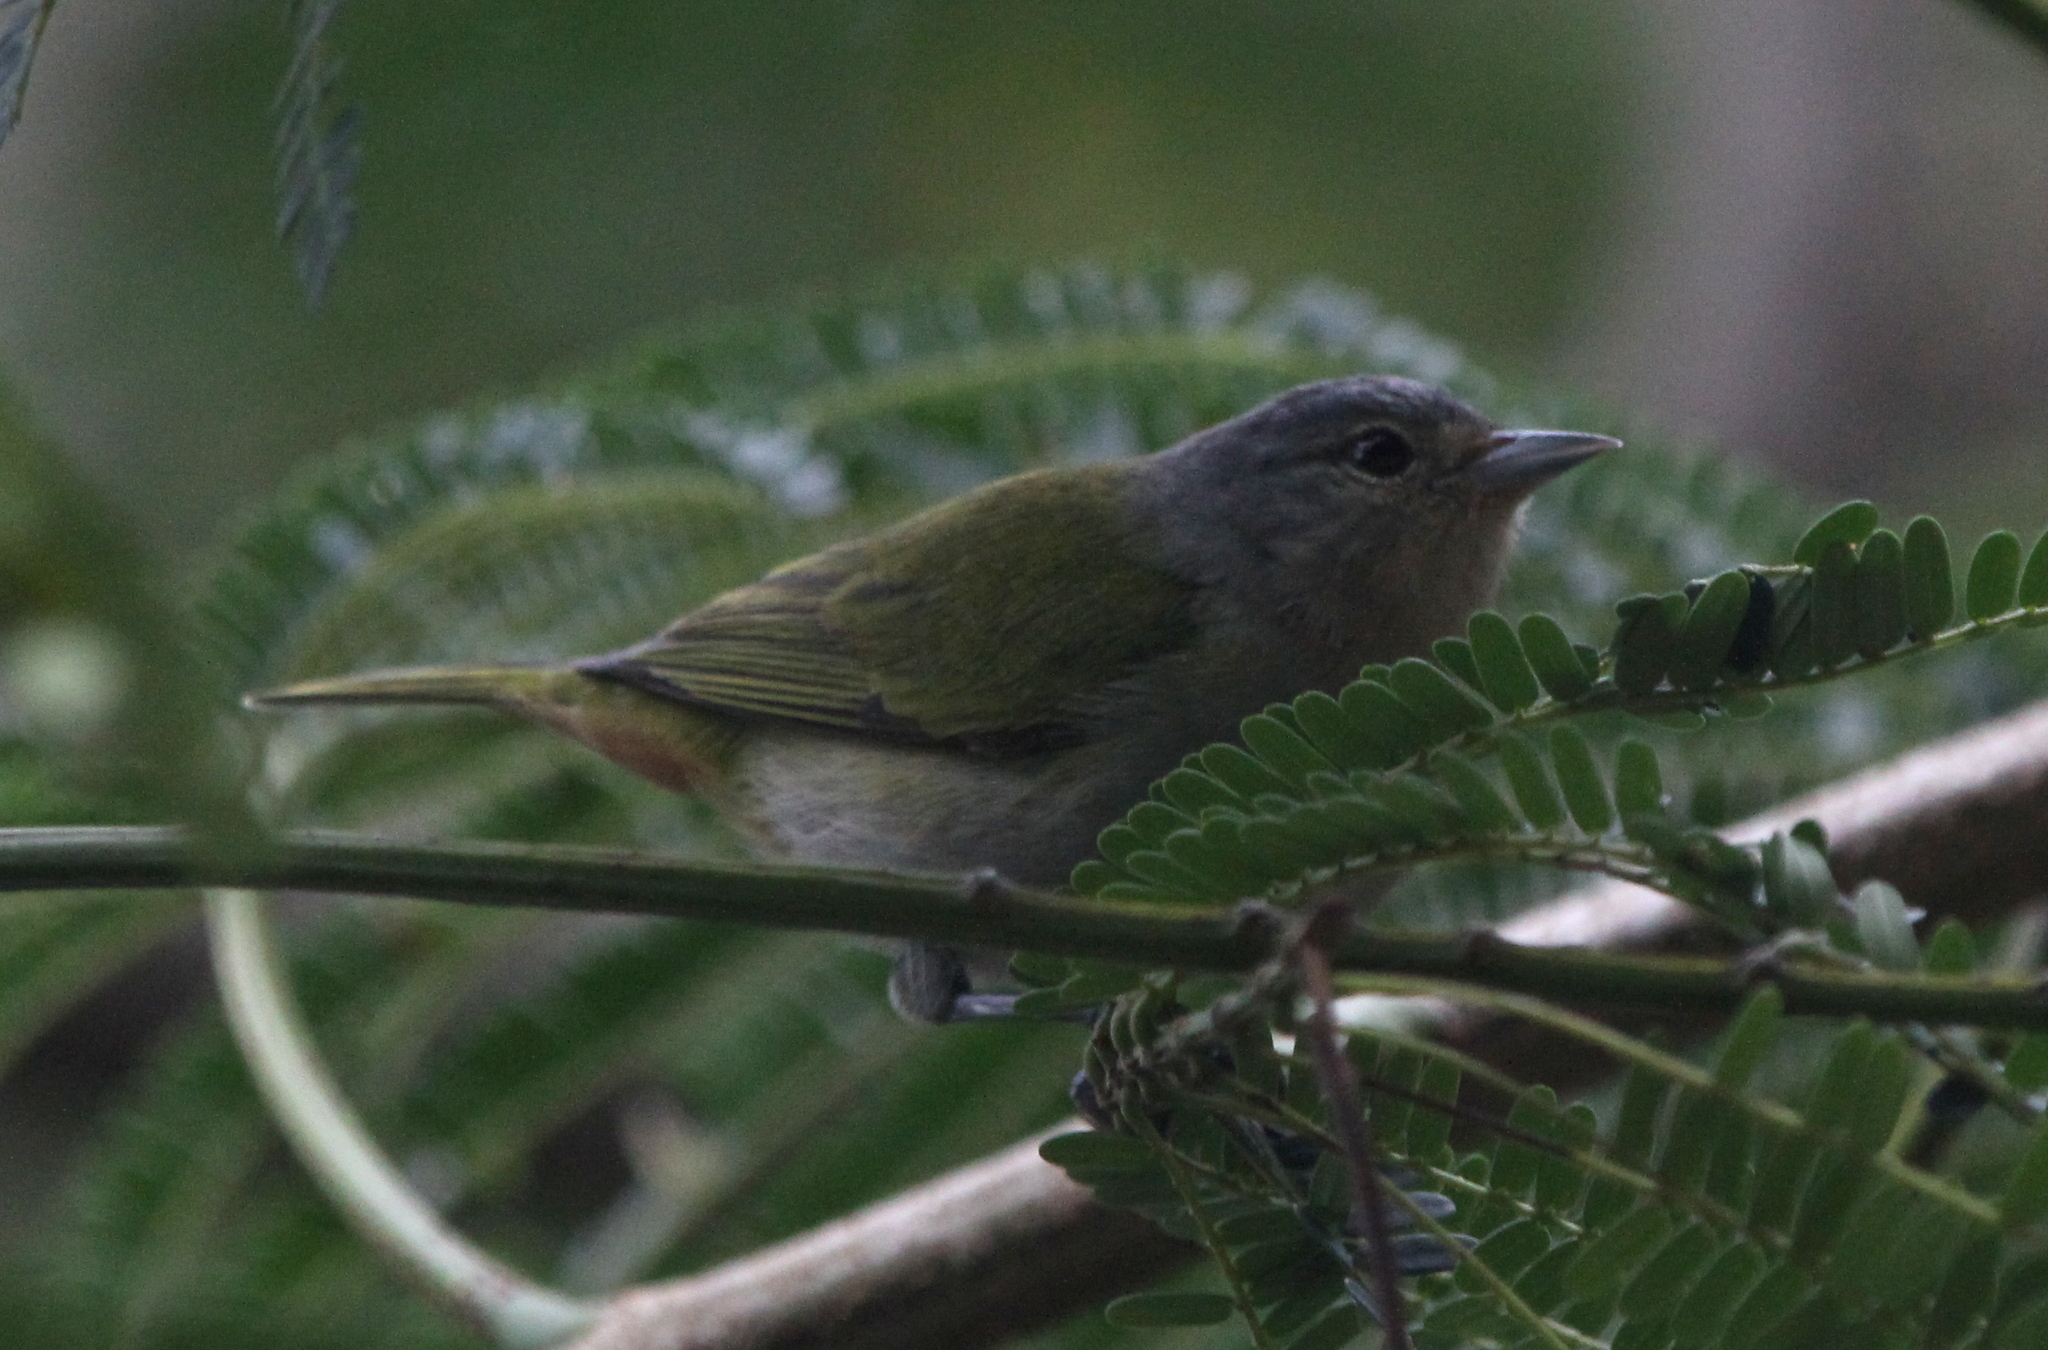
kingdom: Animalia
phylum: Chordata
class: Aves
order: Passeriformes
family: Thraupidae
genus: Conirostrum
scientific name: Conirostrum speciosum
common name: Chestnut-vented conebill
